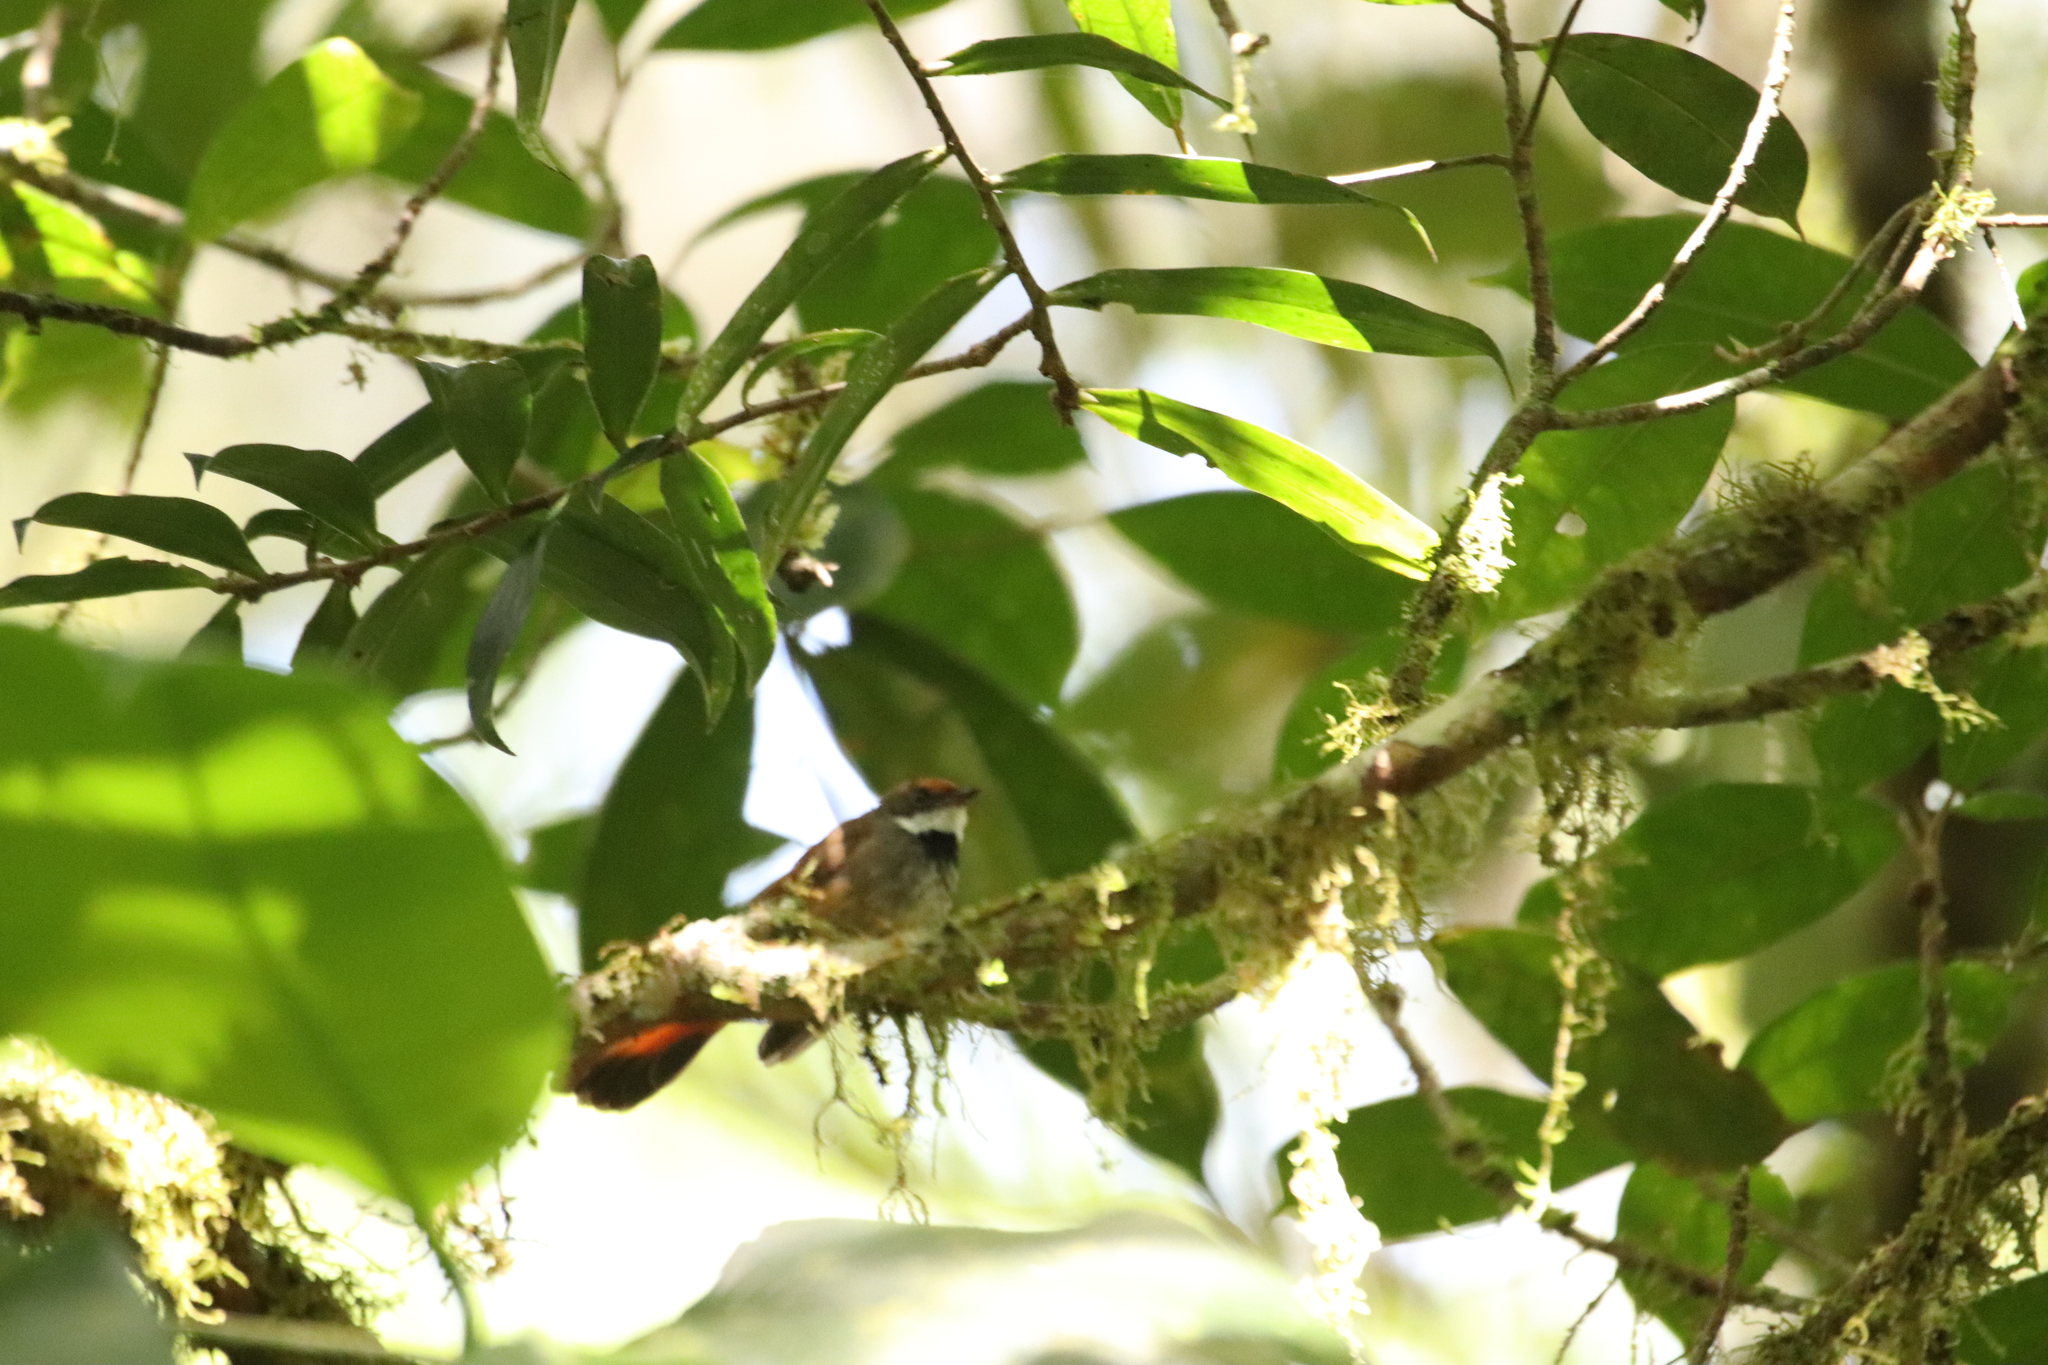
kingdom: Animalia
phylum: Chordata
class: Aves
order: Passeriformes
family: Rhipiduridae
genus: Rhipidura
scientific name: Rhipidura teysmanni
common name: Rusty-bellied fantail
